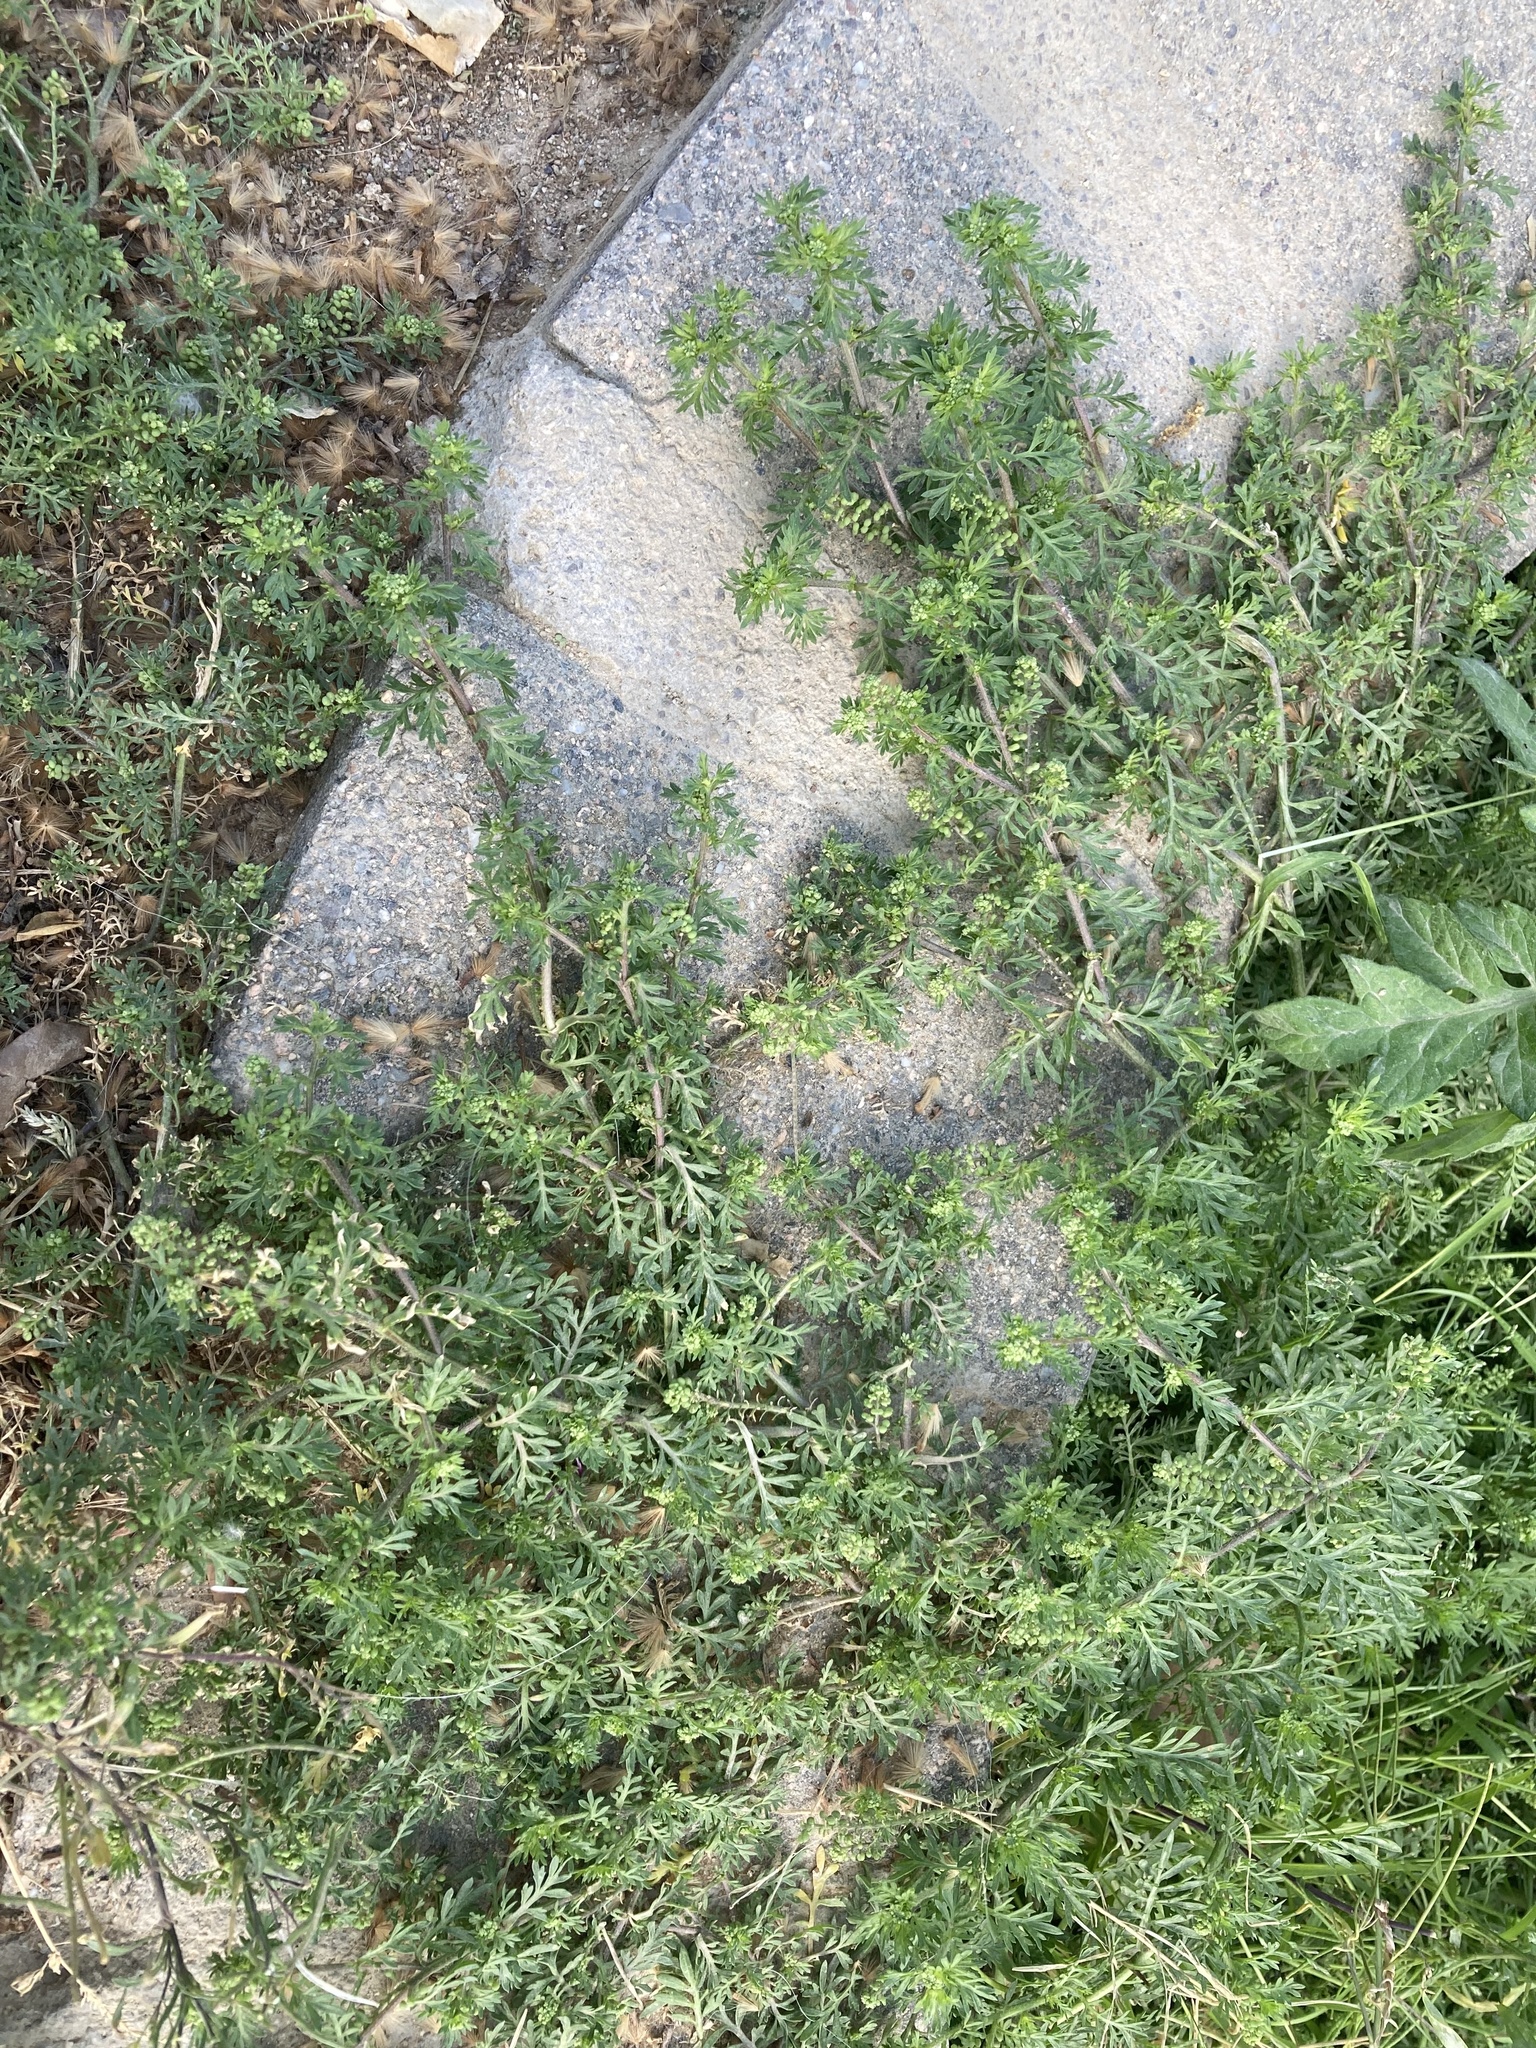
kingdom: Plantae
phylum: Tracheophyta
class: Magnoliopsida
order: Brassicales
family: Brassicaceae
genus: Lepidium
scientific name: Lepidium didymum
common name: Lesser swinecress
